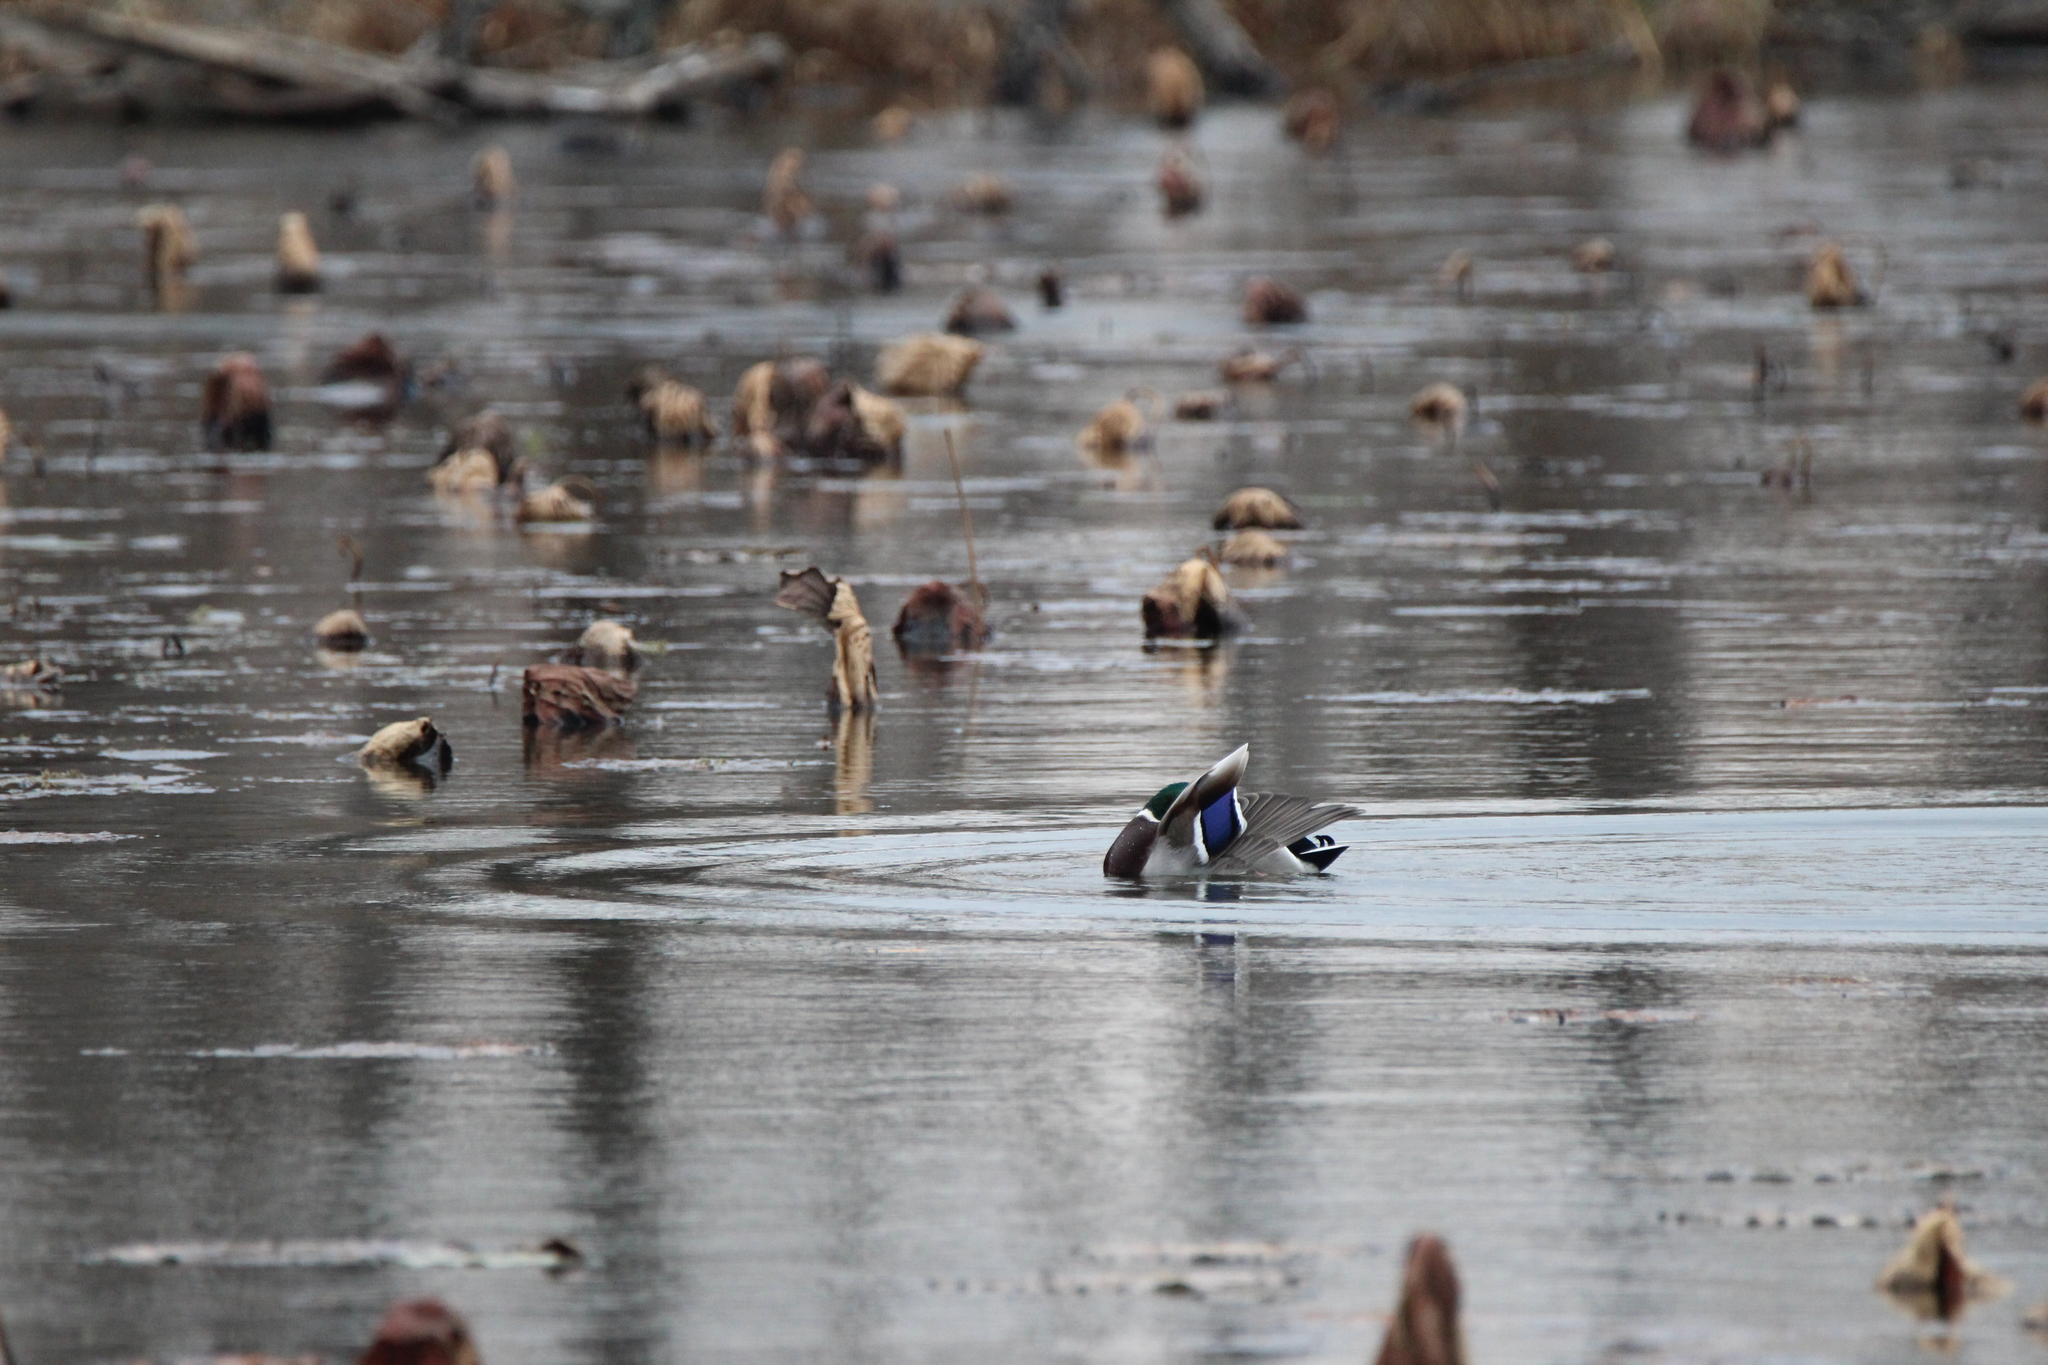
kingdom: Animalia
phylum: Chordata
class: Aves
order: Anseriformes
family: Anatidae
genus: Anas
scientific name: Anas platyrhynchos
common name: Mallard
